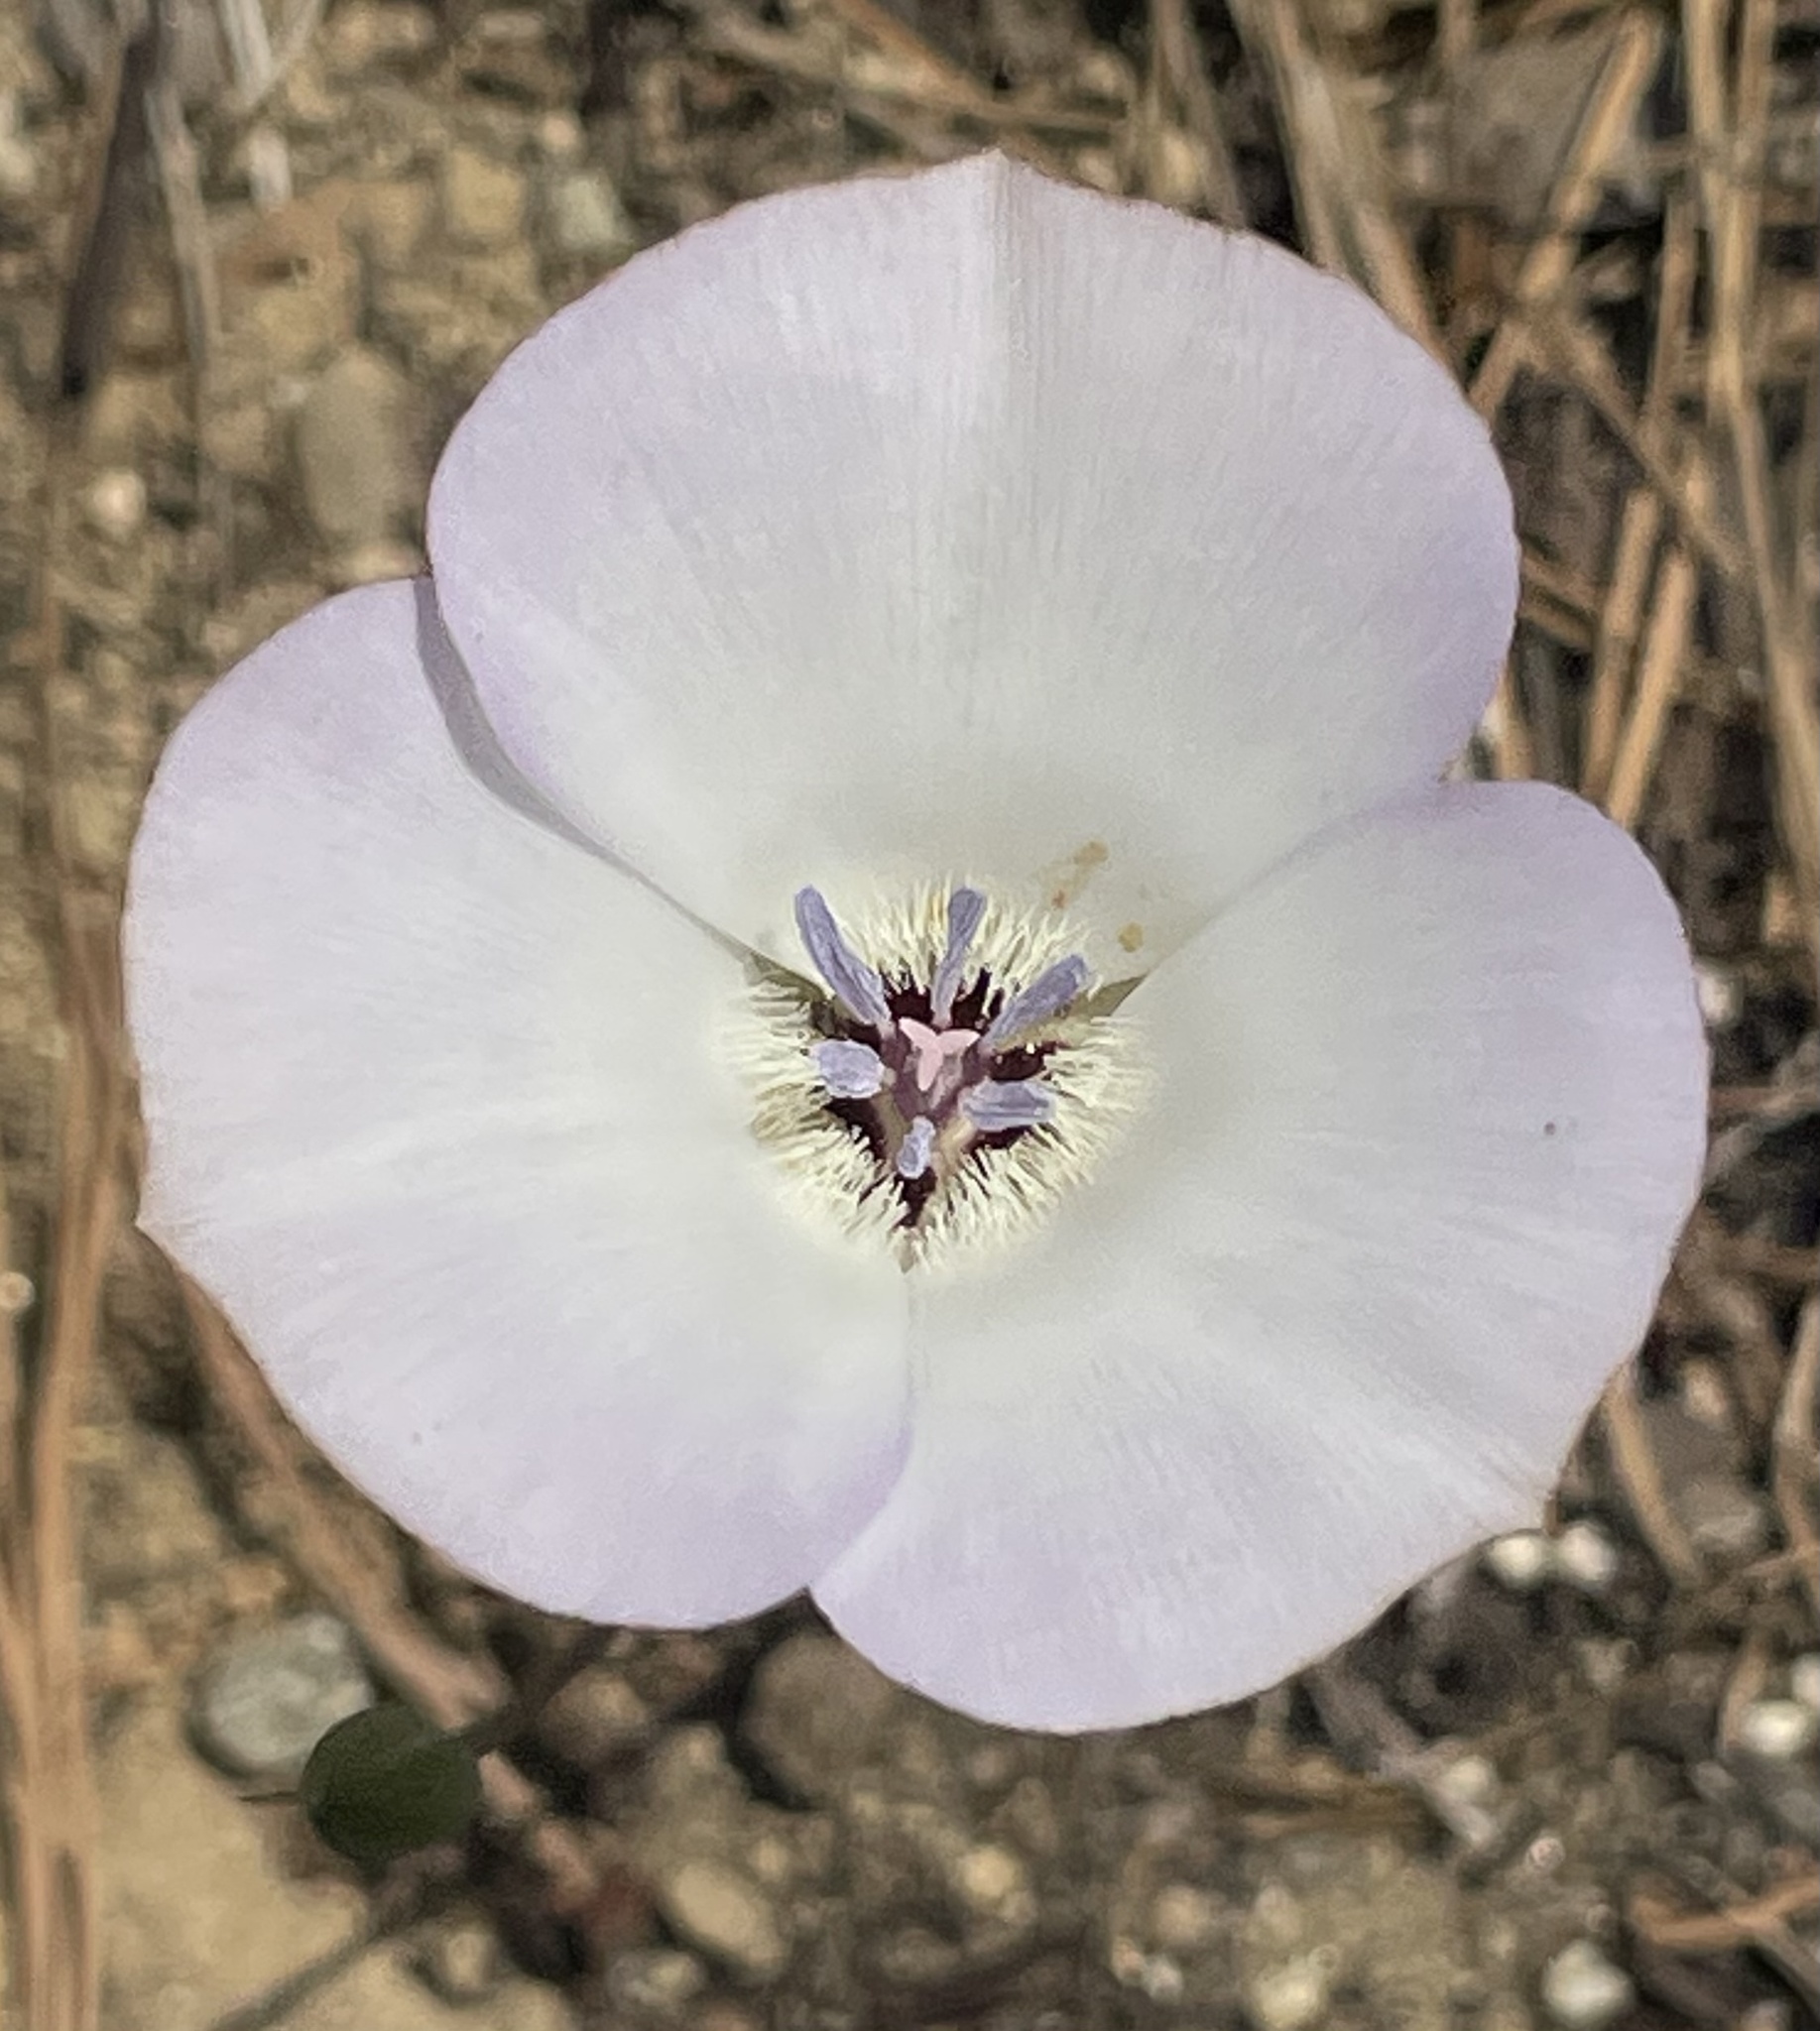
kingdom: Plantae
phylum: Tracheophyta
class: Liliopsida
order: Liliales
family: Liliaceae
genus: Calochortus
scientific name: Calochortus invenustus
